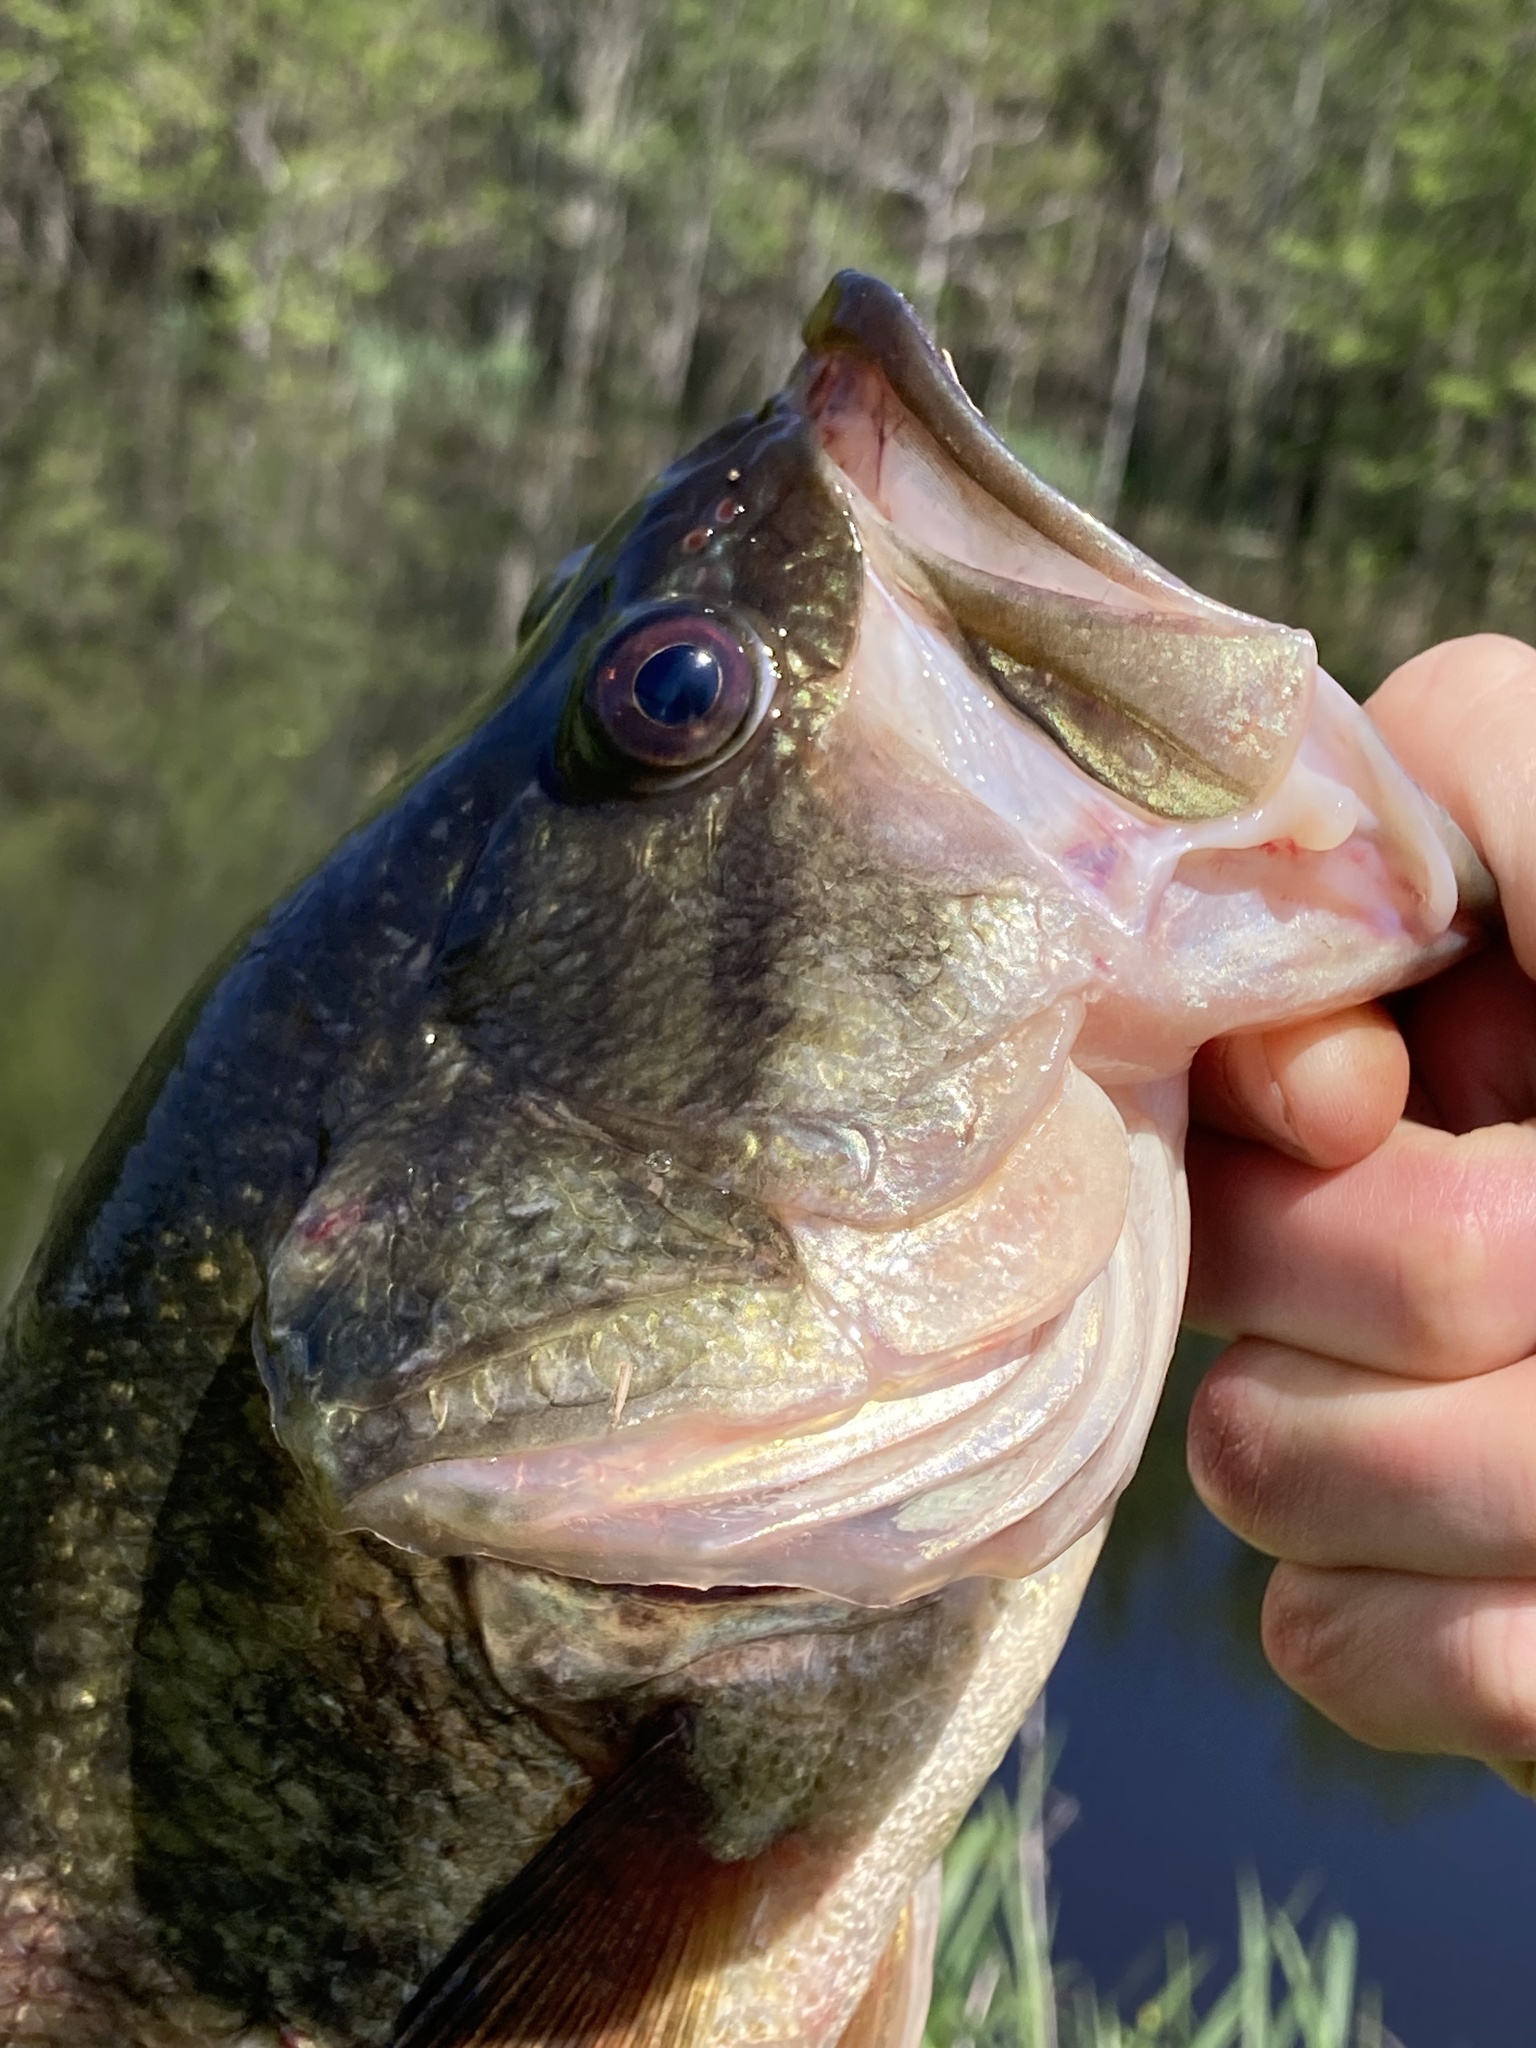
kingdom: Animalia
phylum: Chordata
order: Perciformes
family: Centrarchidae
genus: Micropterus
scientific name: Micropterus
